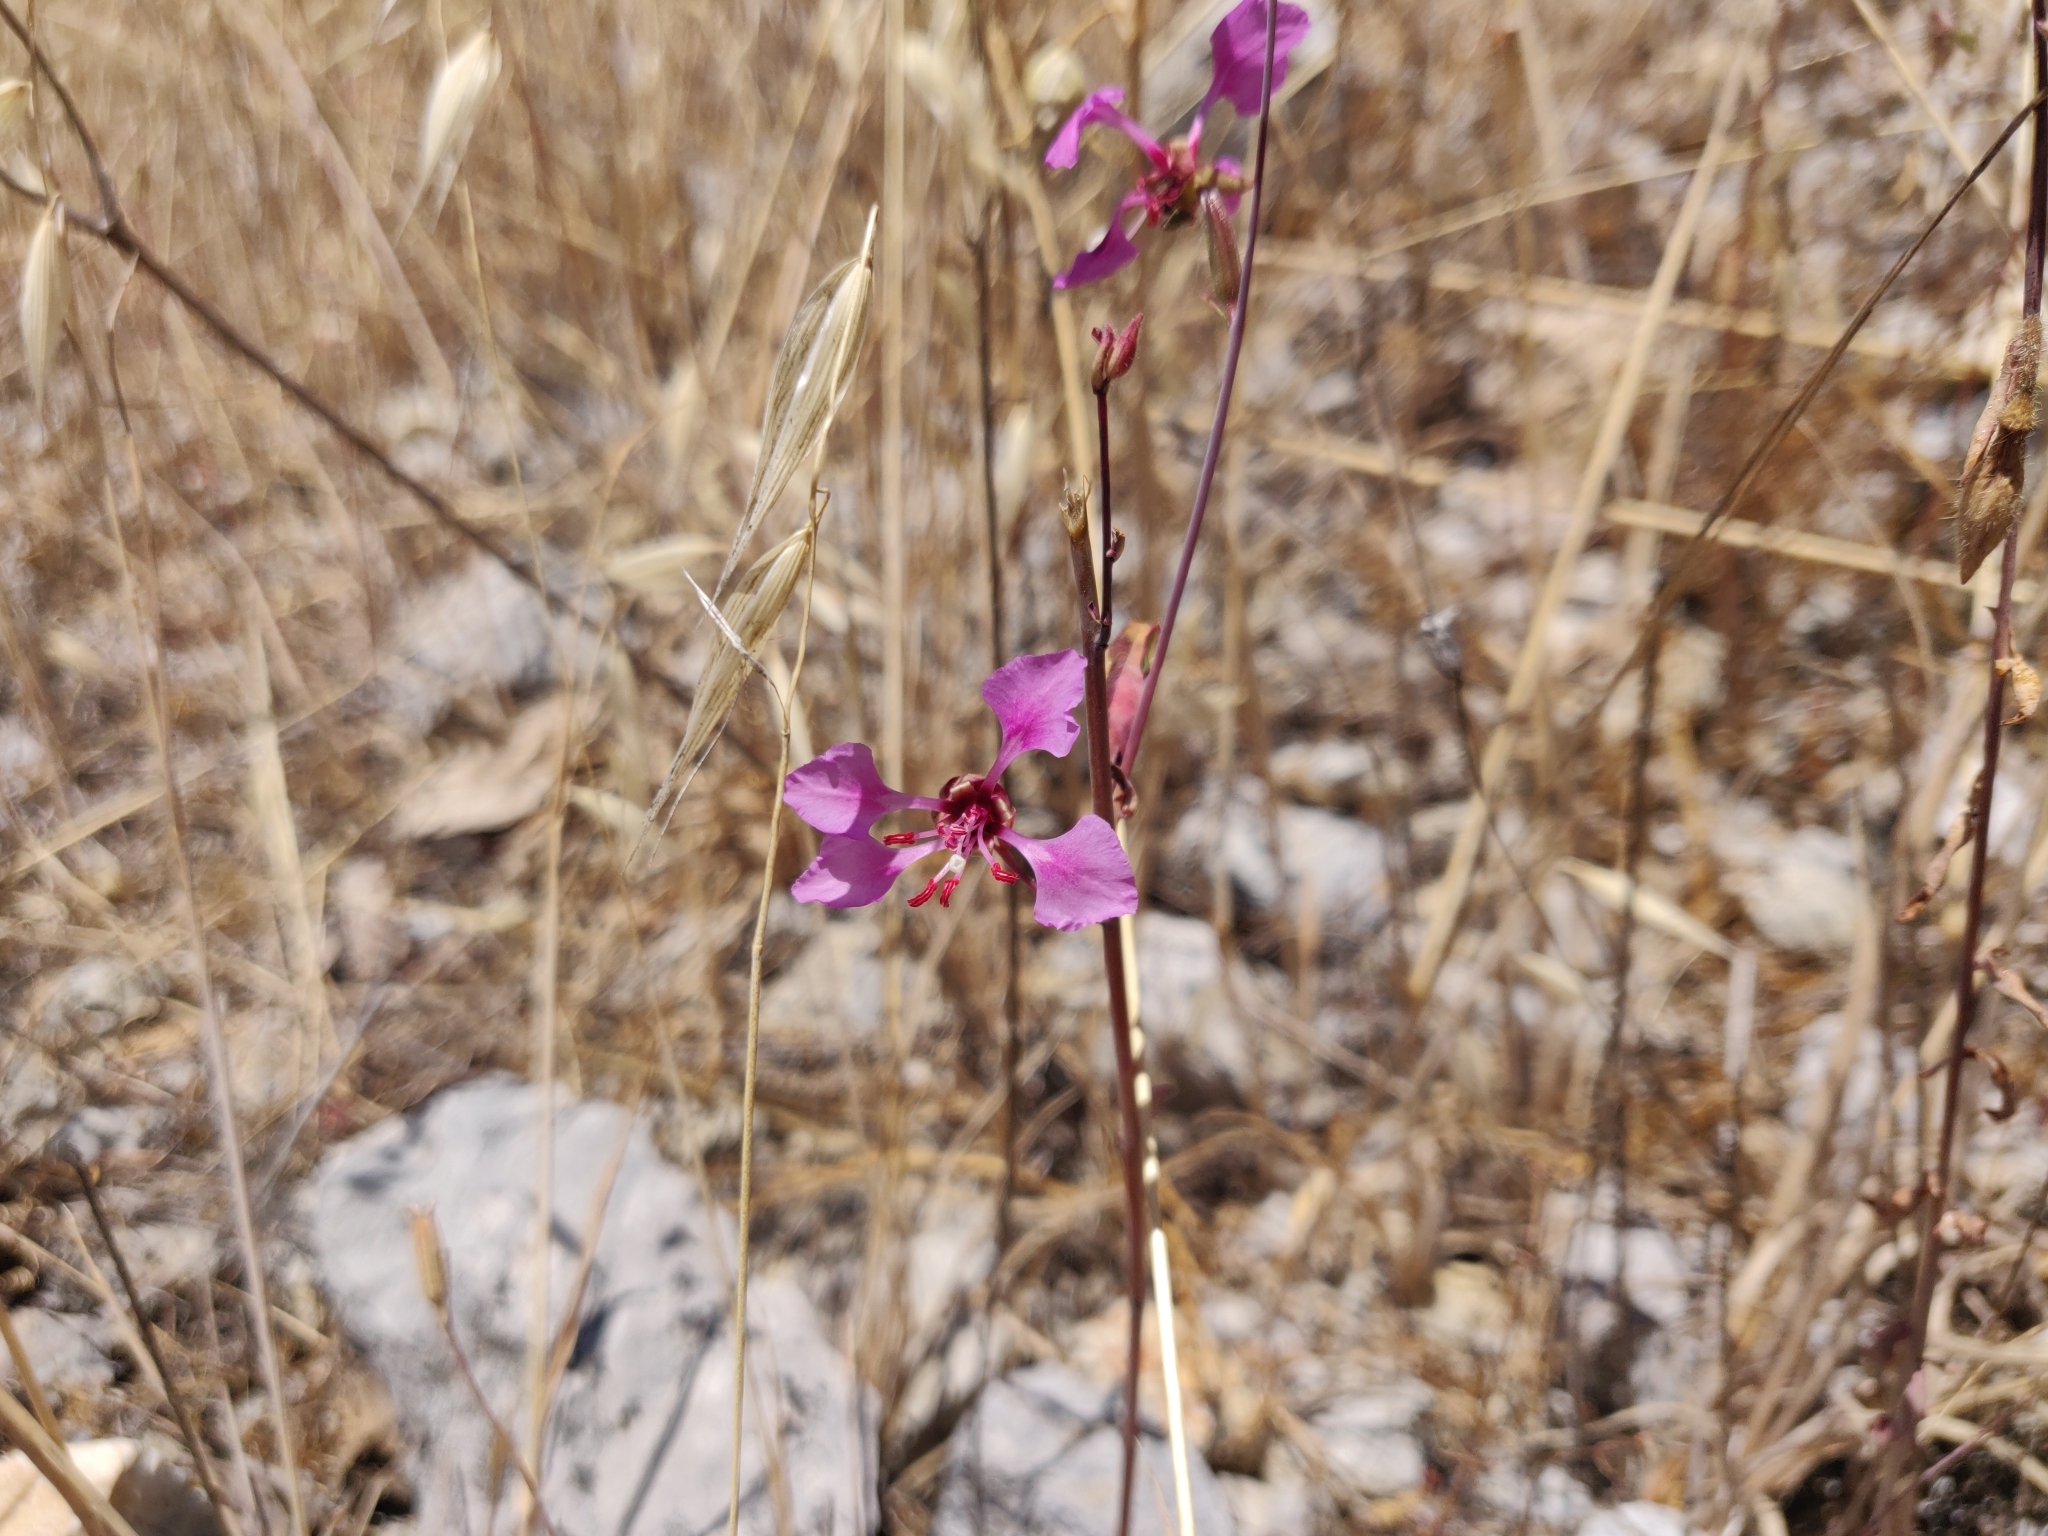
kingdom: Plantae
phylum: Tracheophyta
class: Magnoliopsida
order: Myrtales
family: Onagraceae
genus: Clarkia
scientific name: Clarkia unguiculata
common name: Clarkia
